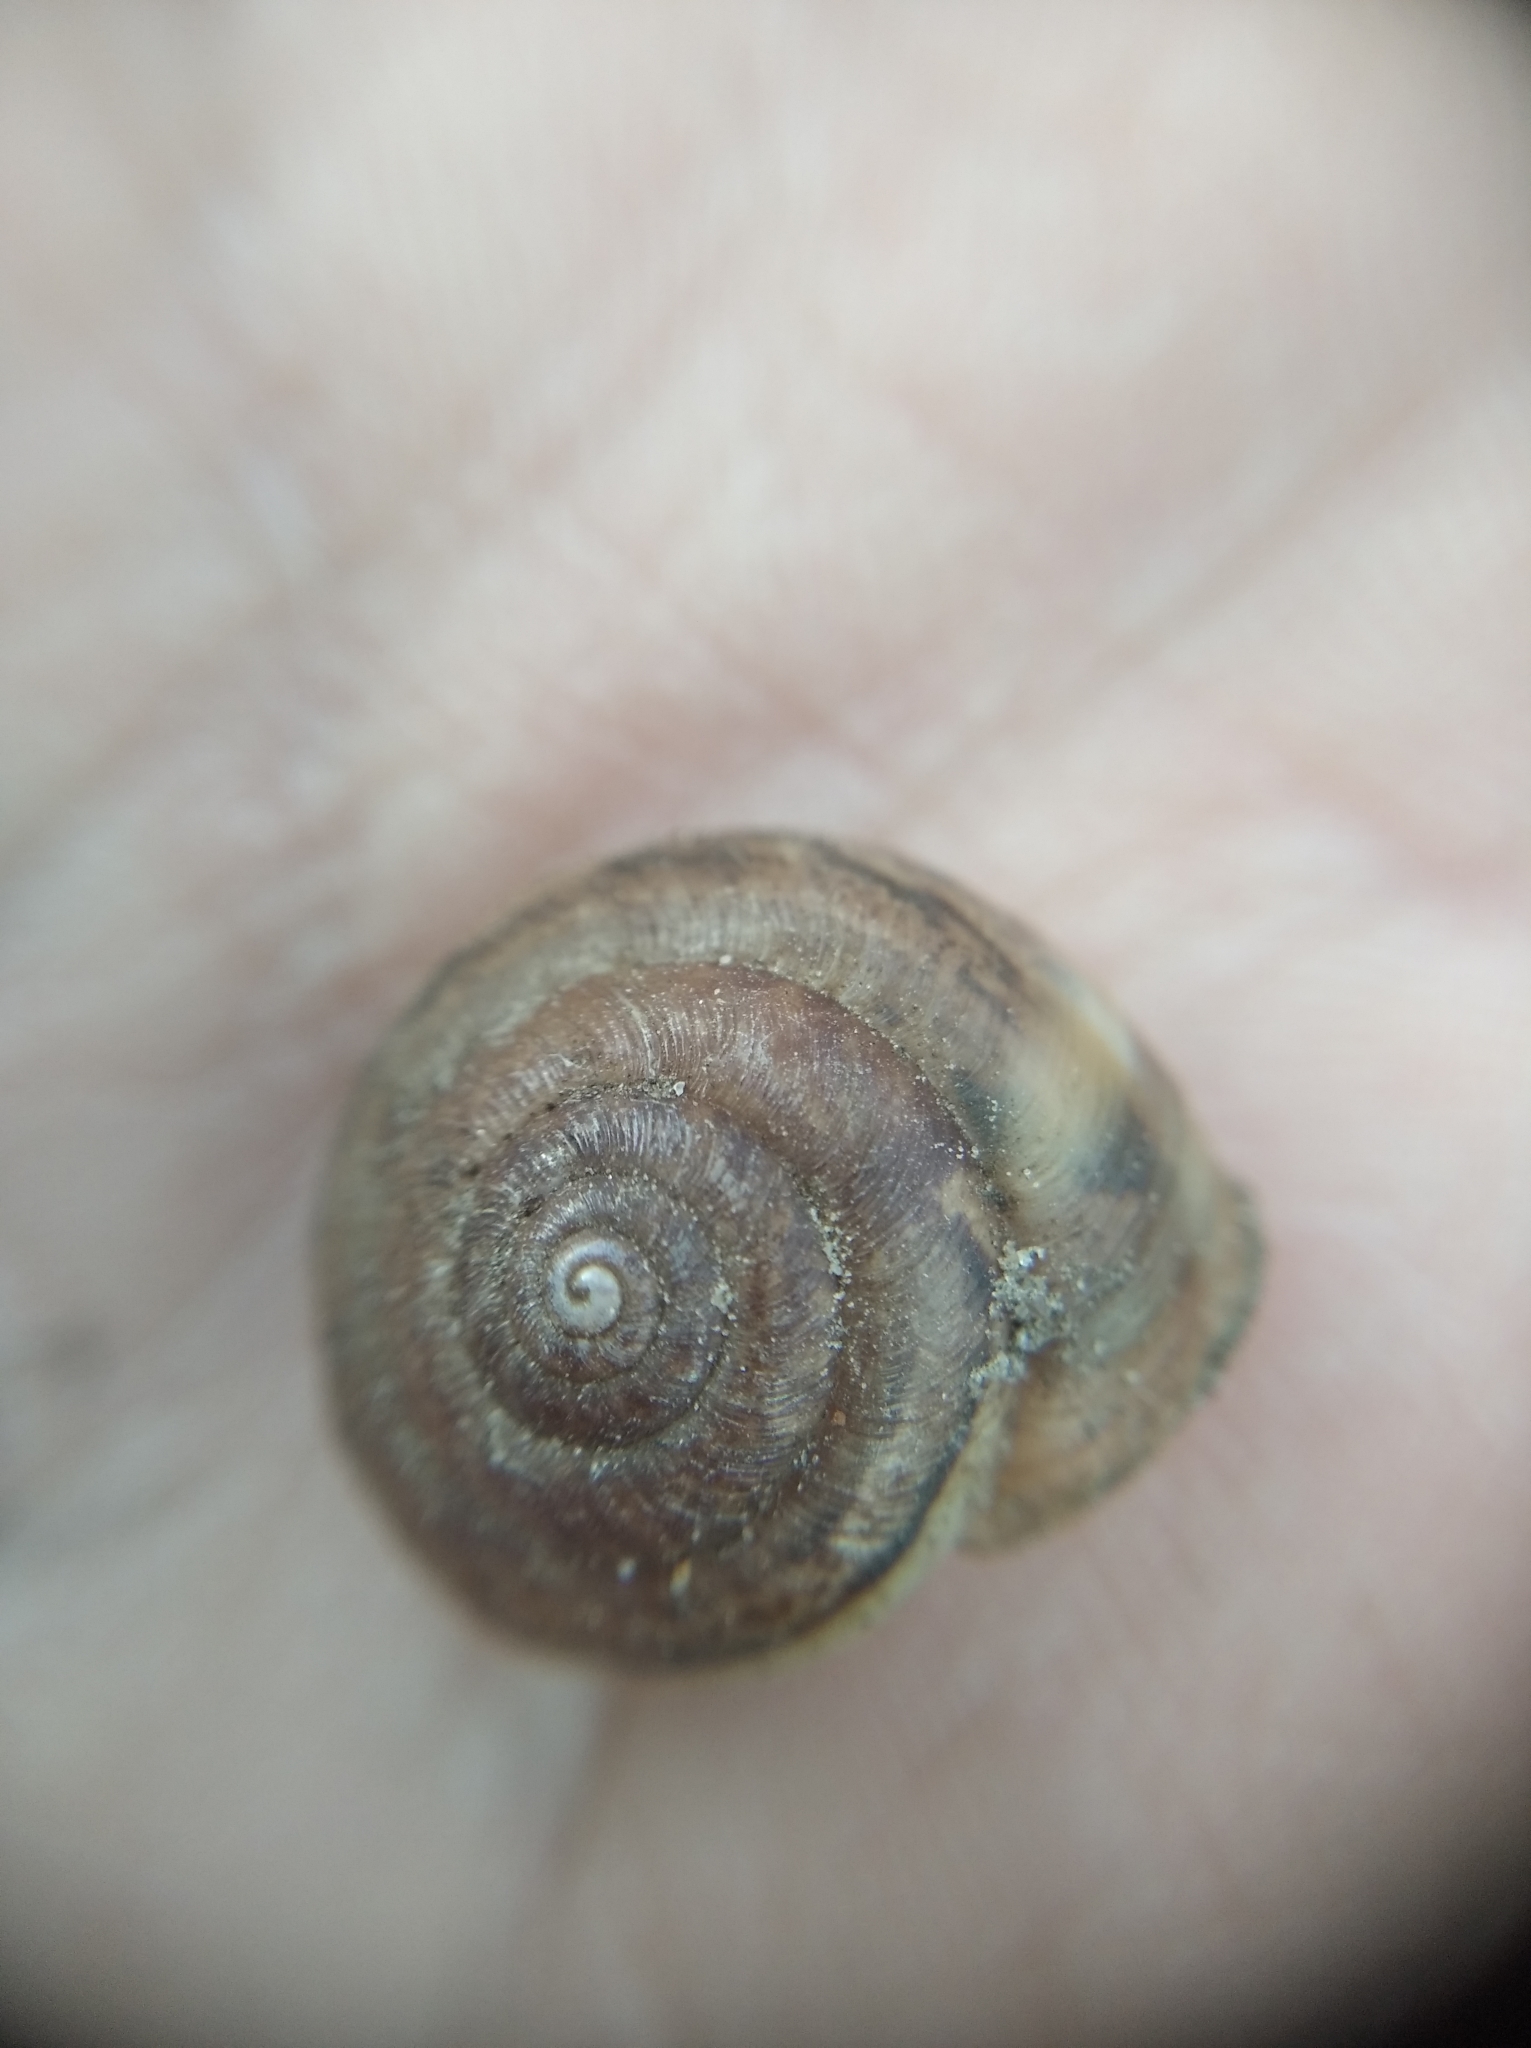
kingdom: Animalia
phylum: Mollusca
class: Gastropoda
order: Stylommatophora
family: Hygromiidae
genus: Euomphalia
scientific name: Euomphalia strigella
